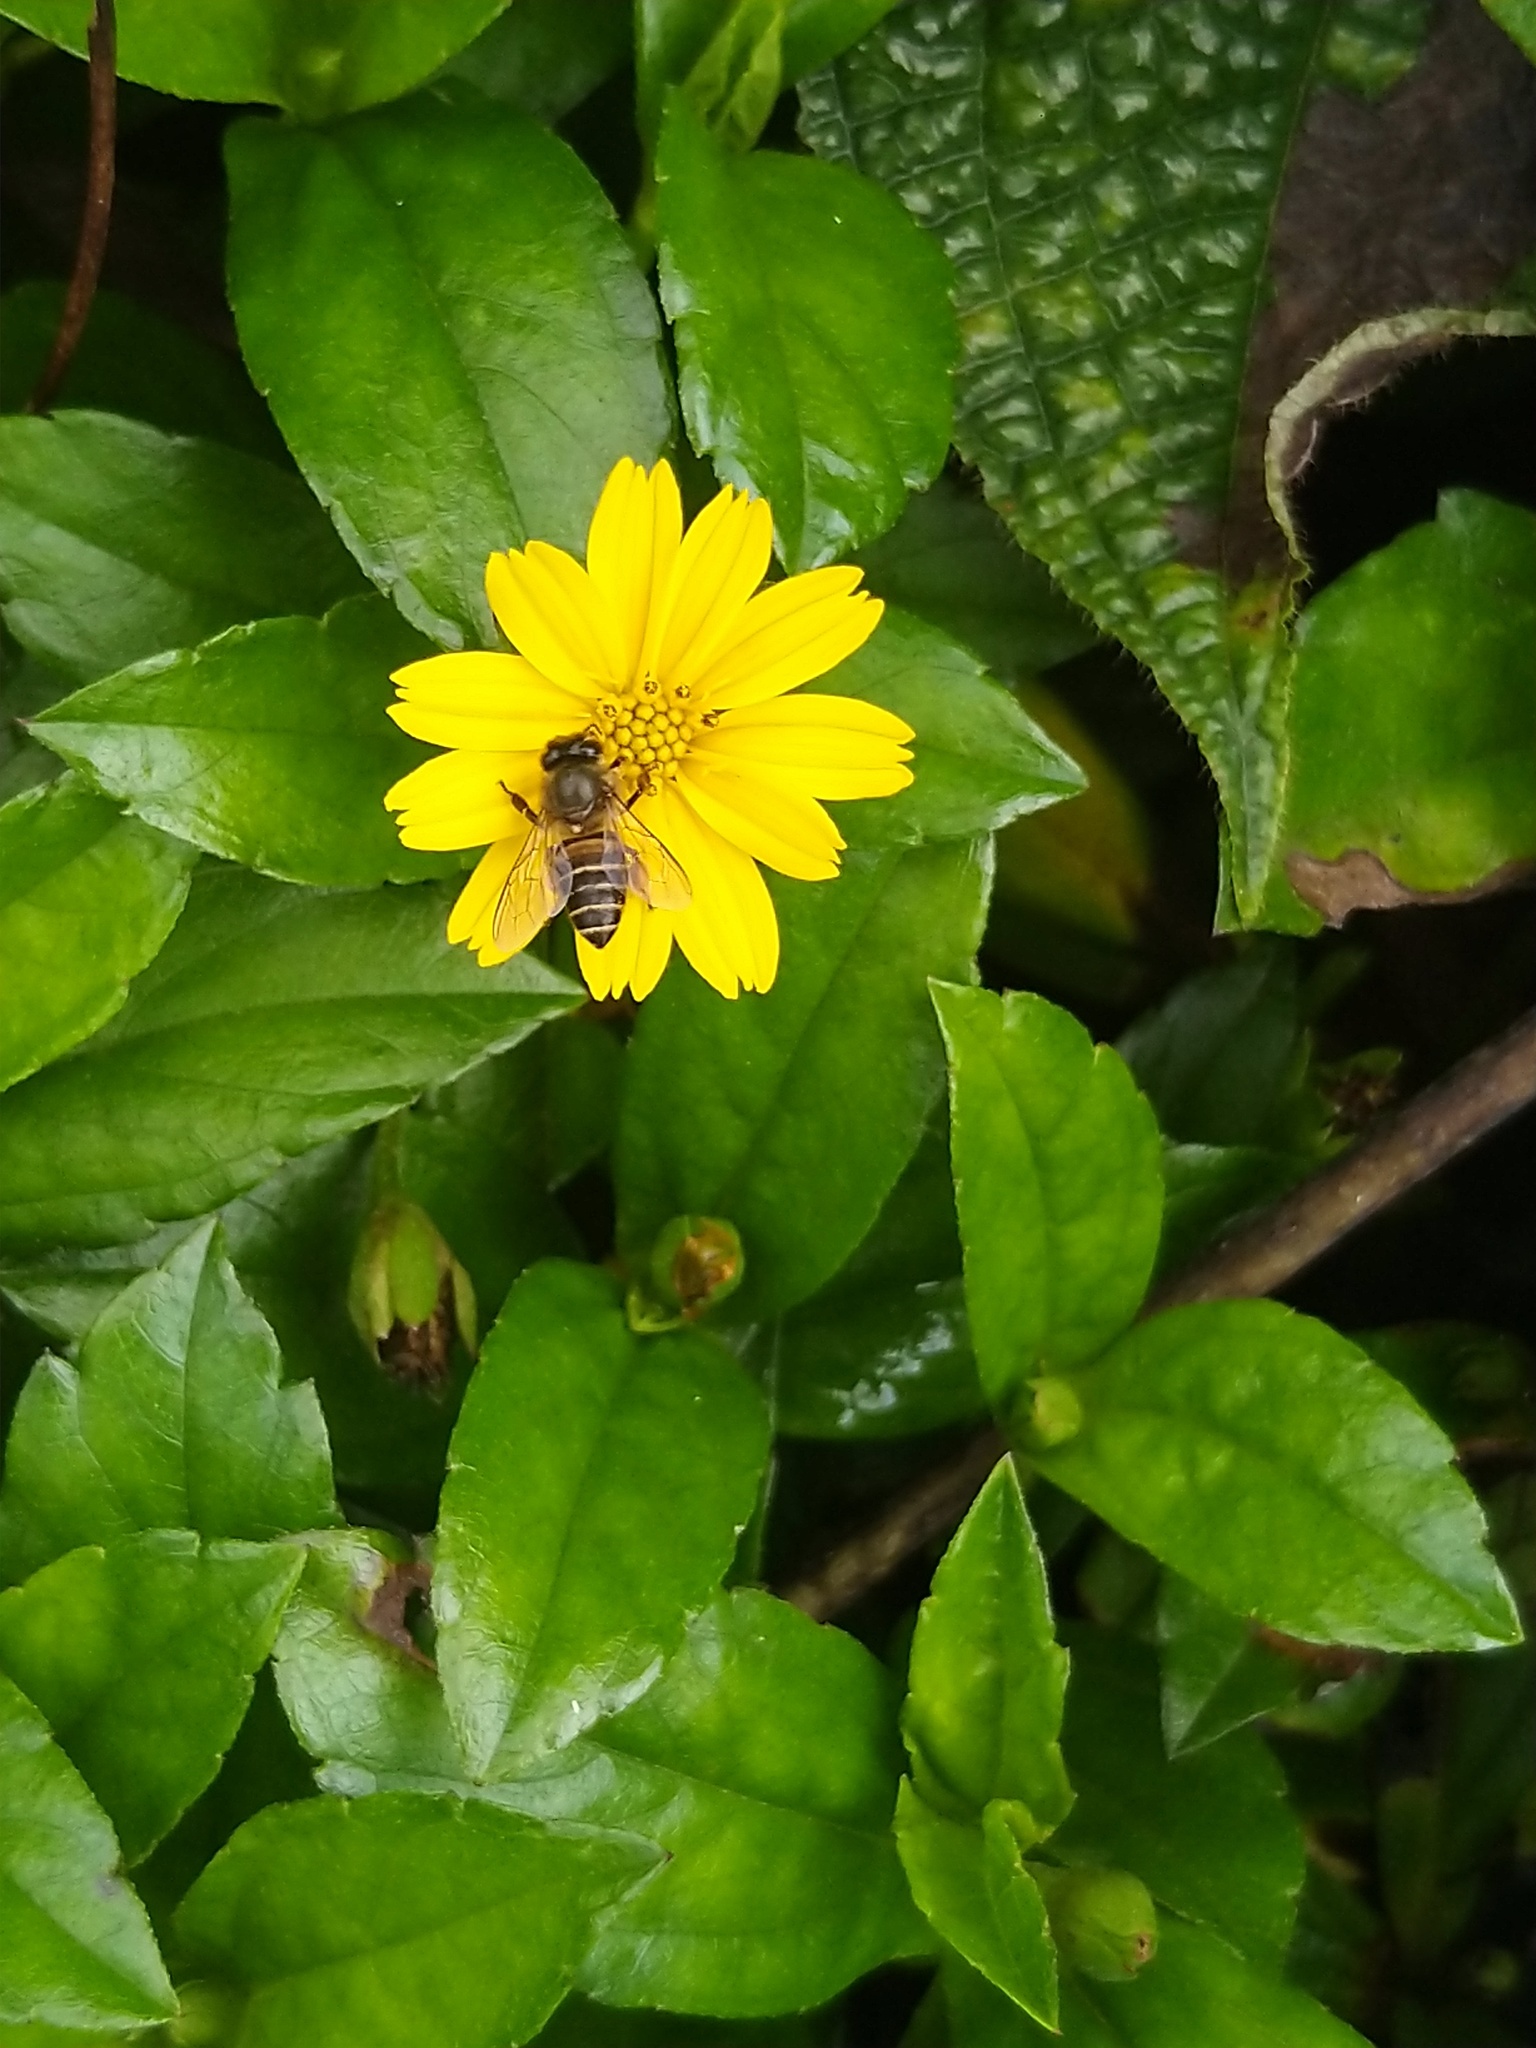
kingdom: Animalia
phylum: Arthropoda
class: Insecta
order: Hymenoptera
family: Apidae
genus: Apis
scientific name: Apis cerana
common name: Honey bee
